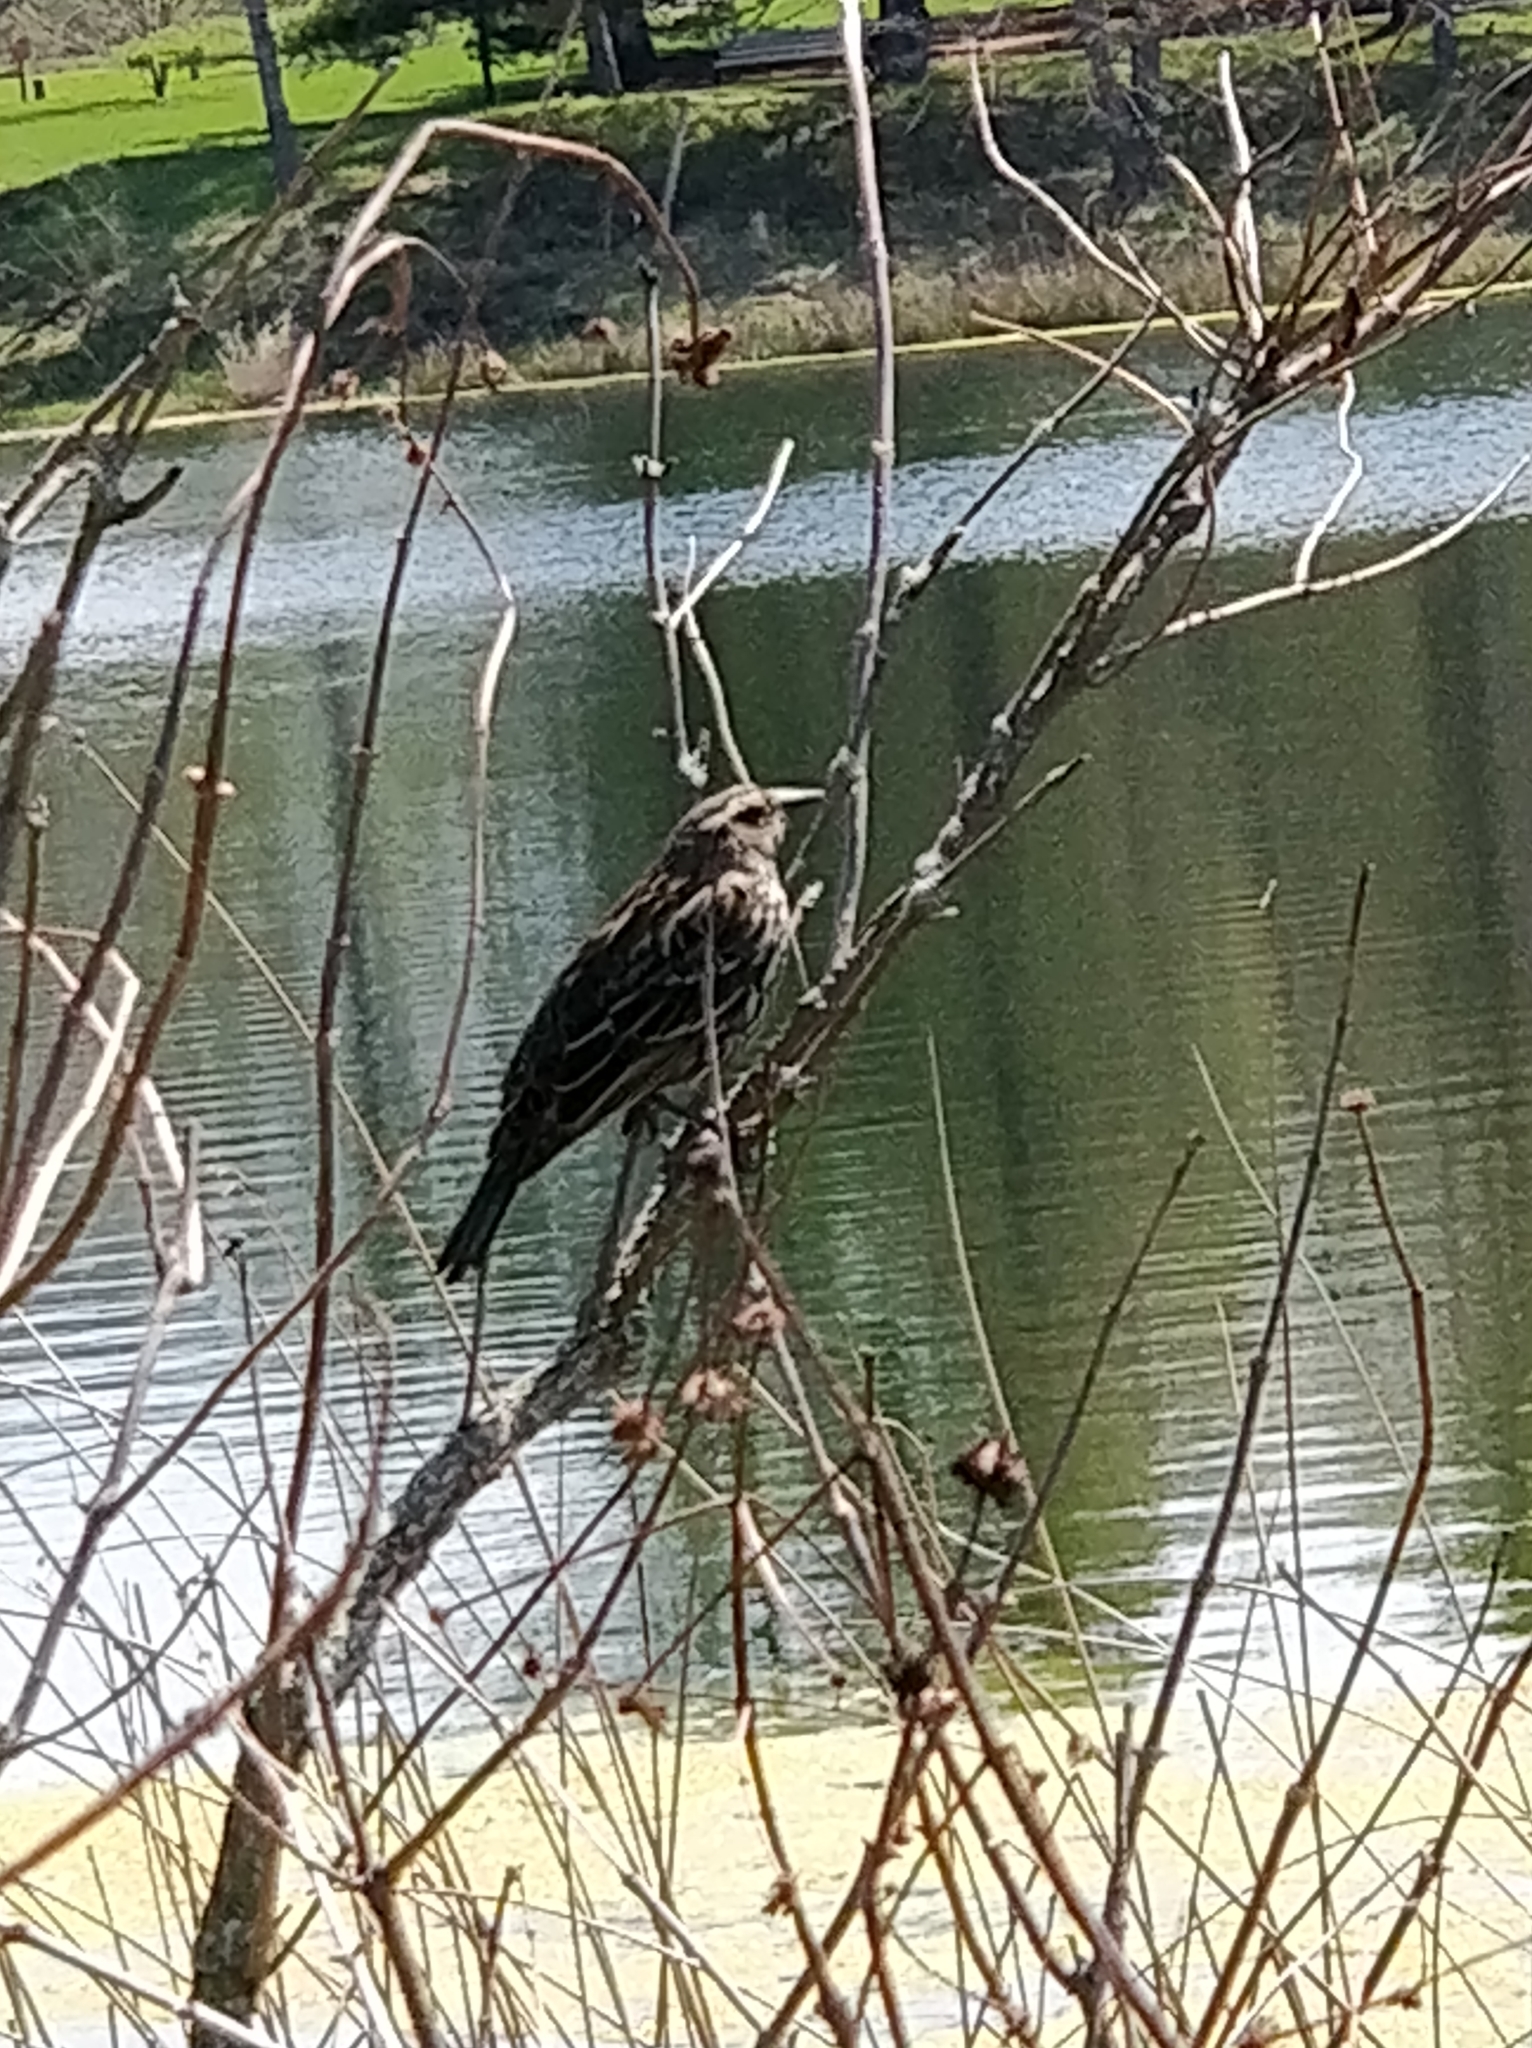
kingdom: Animalia
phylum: Chordata
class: Aves
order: Passeriformes
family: Icteridae
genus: Agelaius
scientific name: Agelaius phoeniceus
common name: Red-winged blackbird
